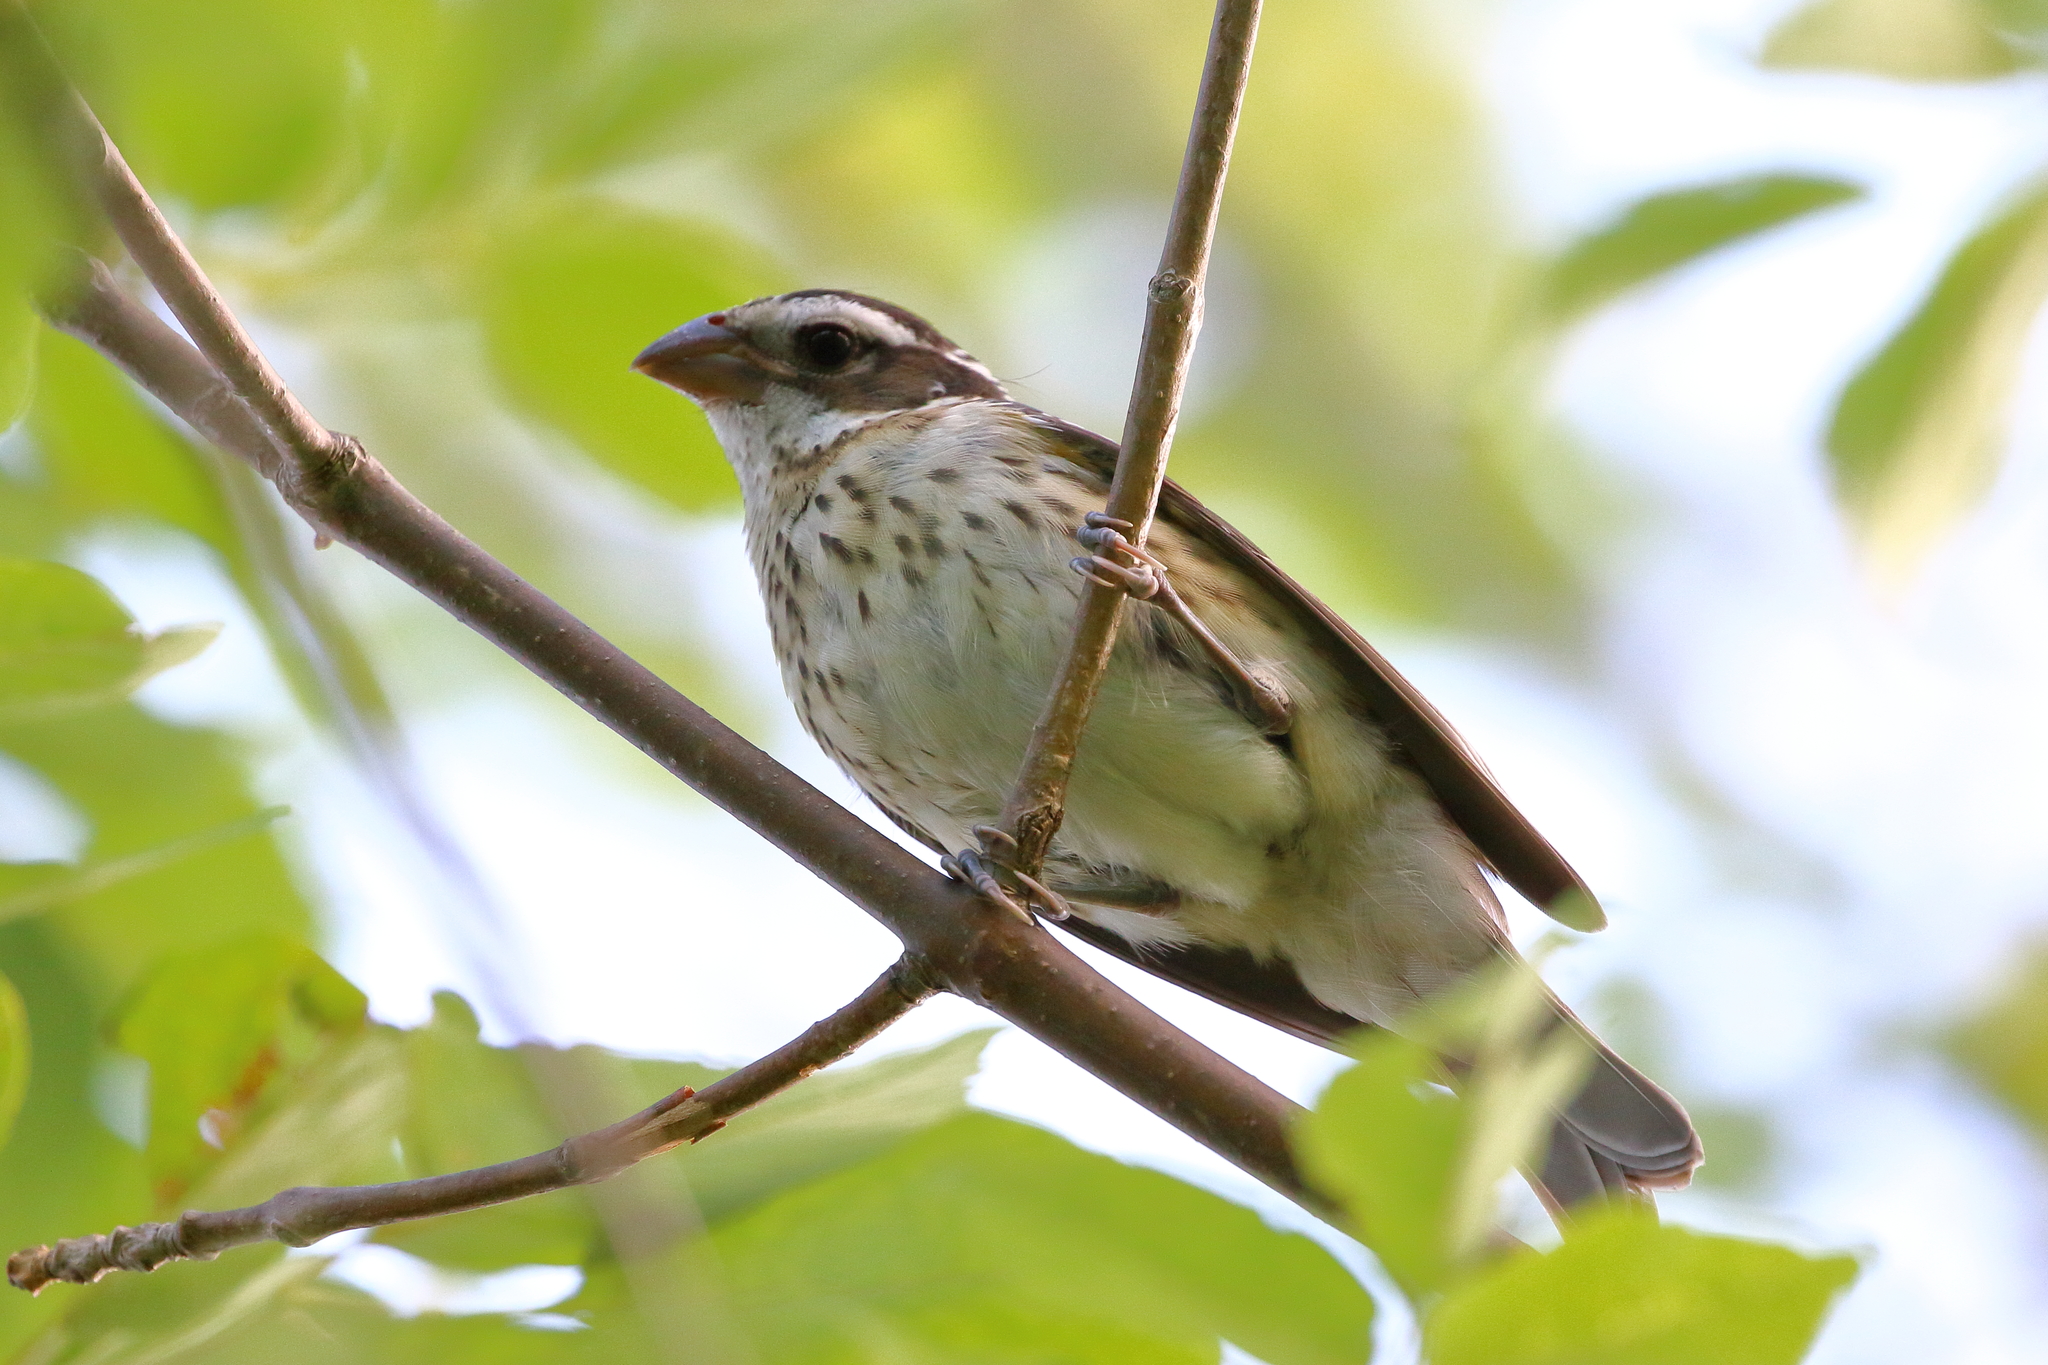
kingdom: Animalia
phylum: Chordata
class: Aves
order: Passeriformes
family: Cardinalidae
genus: Pheucticus
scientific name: Pheucticus ludovicianus
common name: Rose-breasted grosbeak
